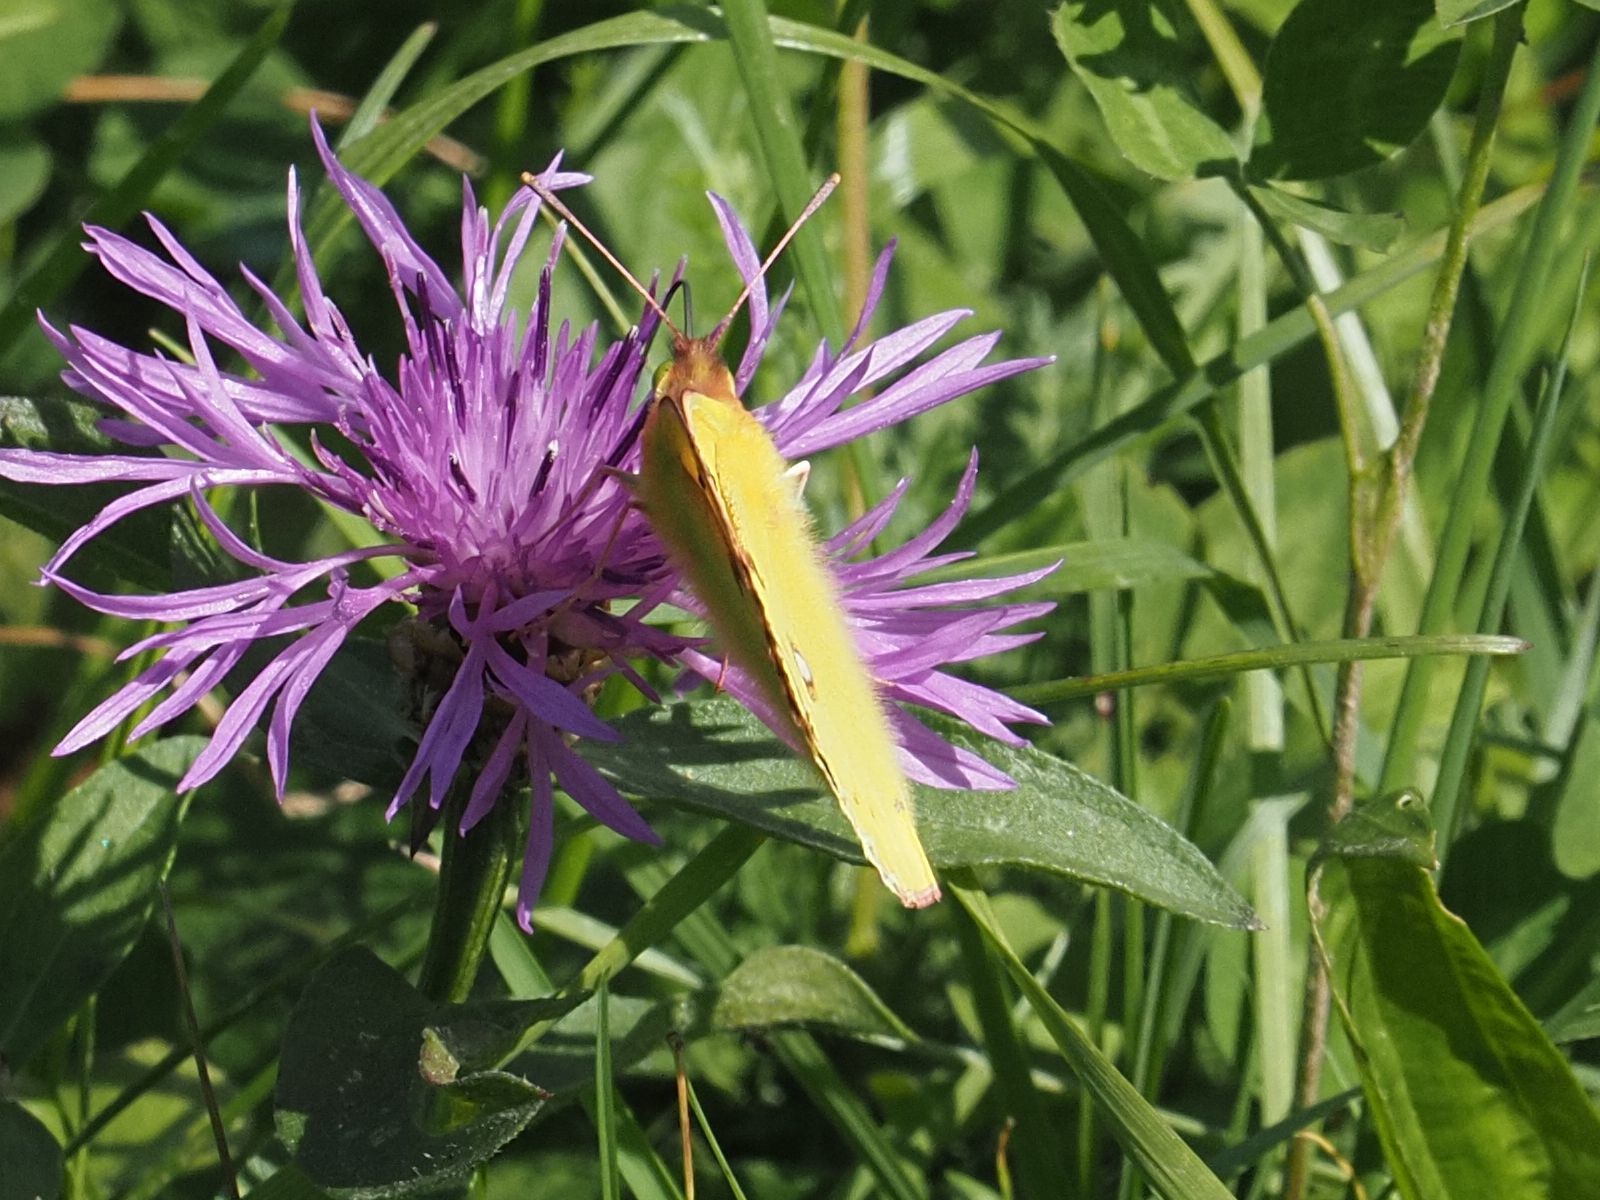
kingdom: Animalia
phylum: Arthropoda
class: Insecta
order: Lepidoptera
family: Pieridae
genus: Colias
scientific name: Colias croceus
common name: Clouded yellow
